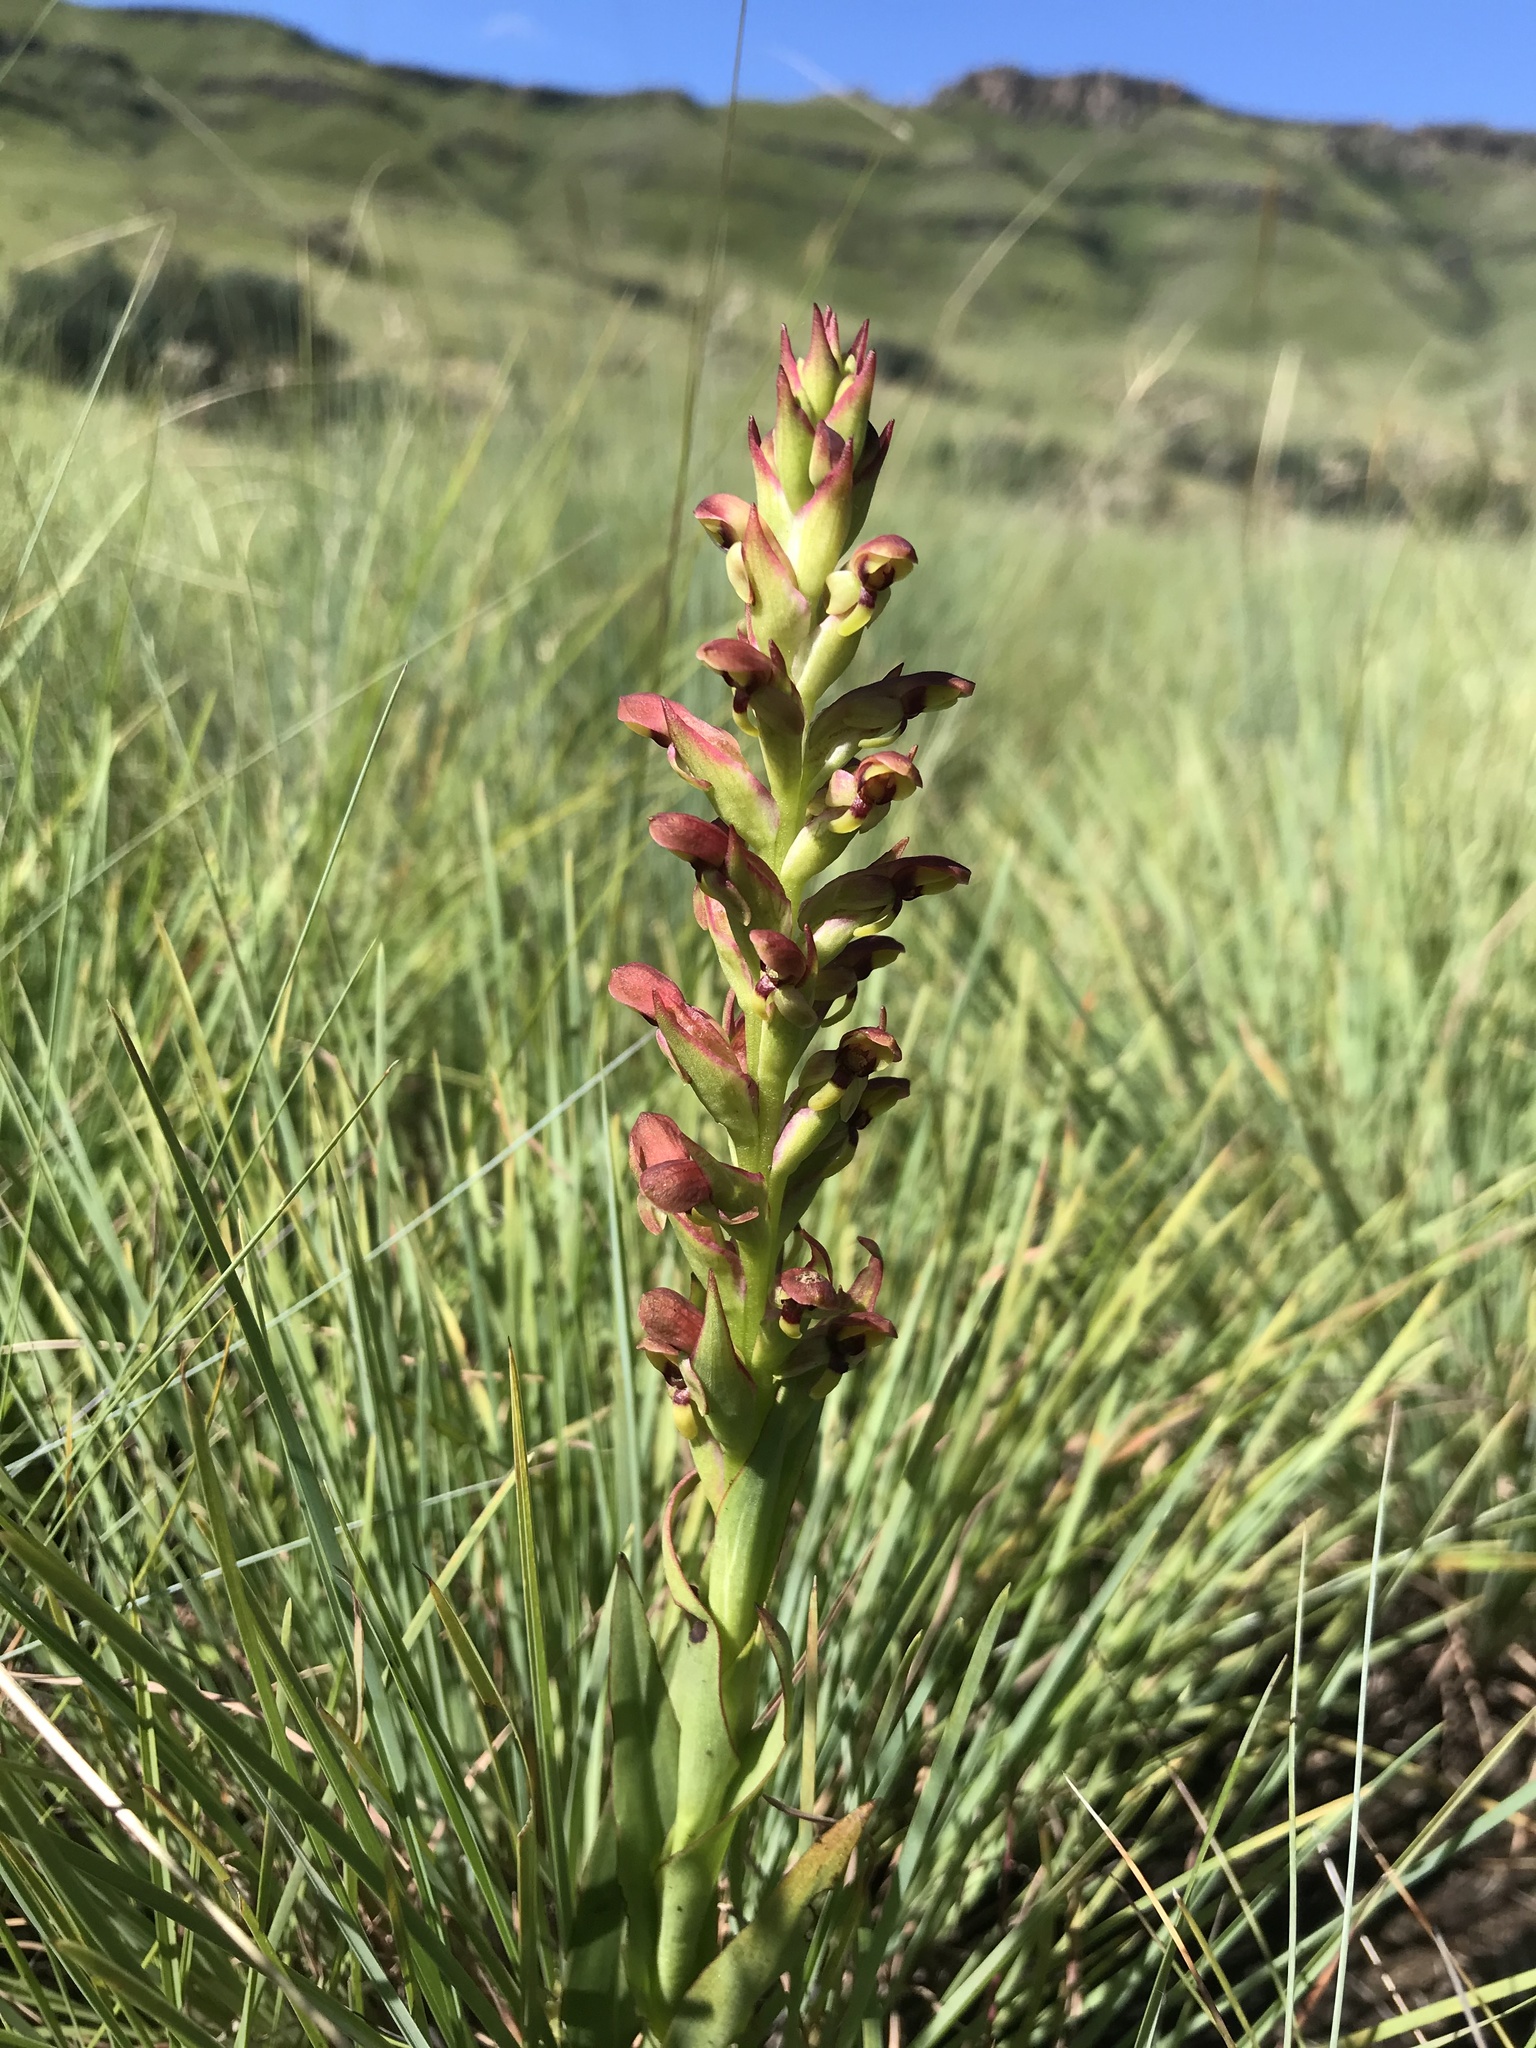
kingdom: Plantae
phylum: Tracheophyta
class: Liliopsida
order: Asparagales
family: Orchidaceae
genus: Disa
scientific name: Disa brevicornis
